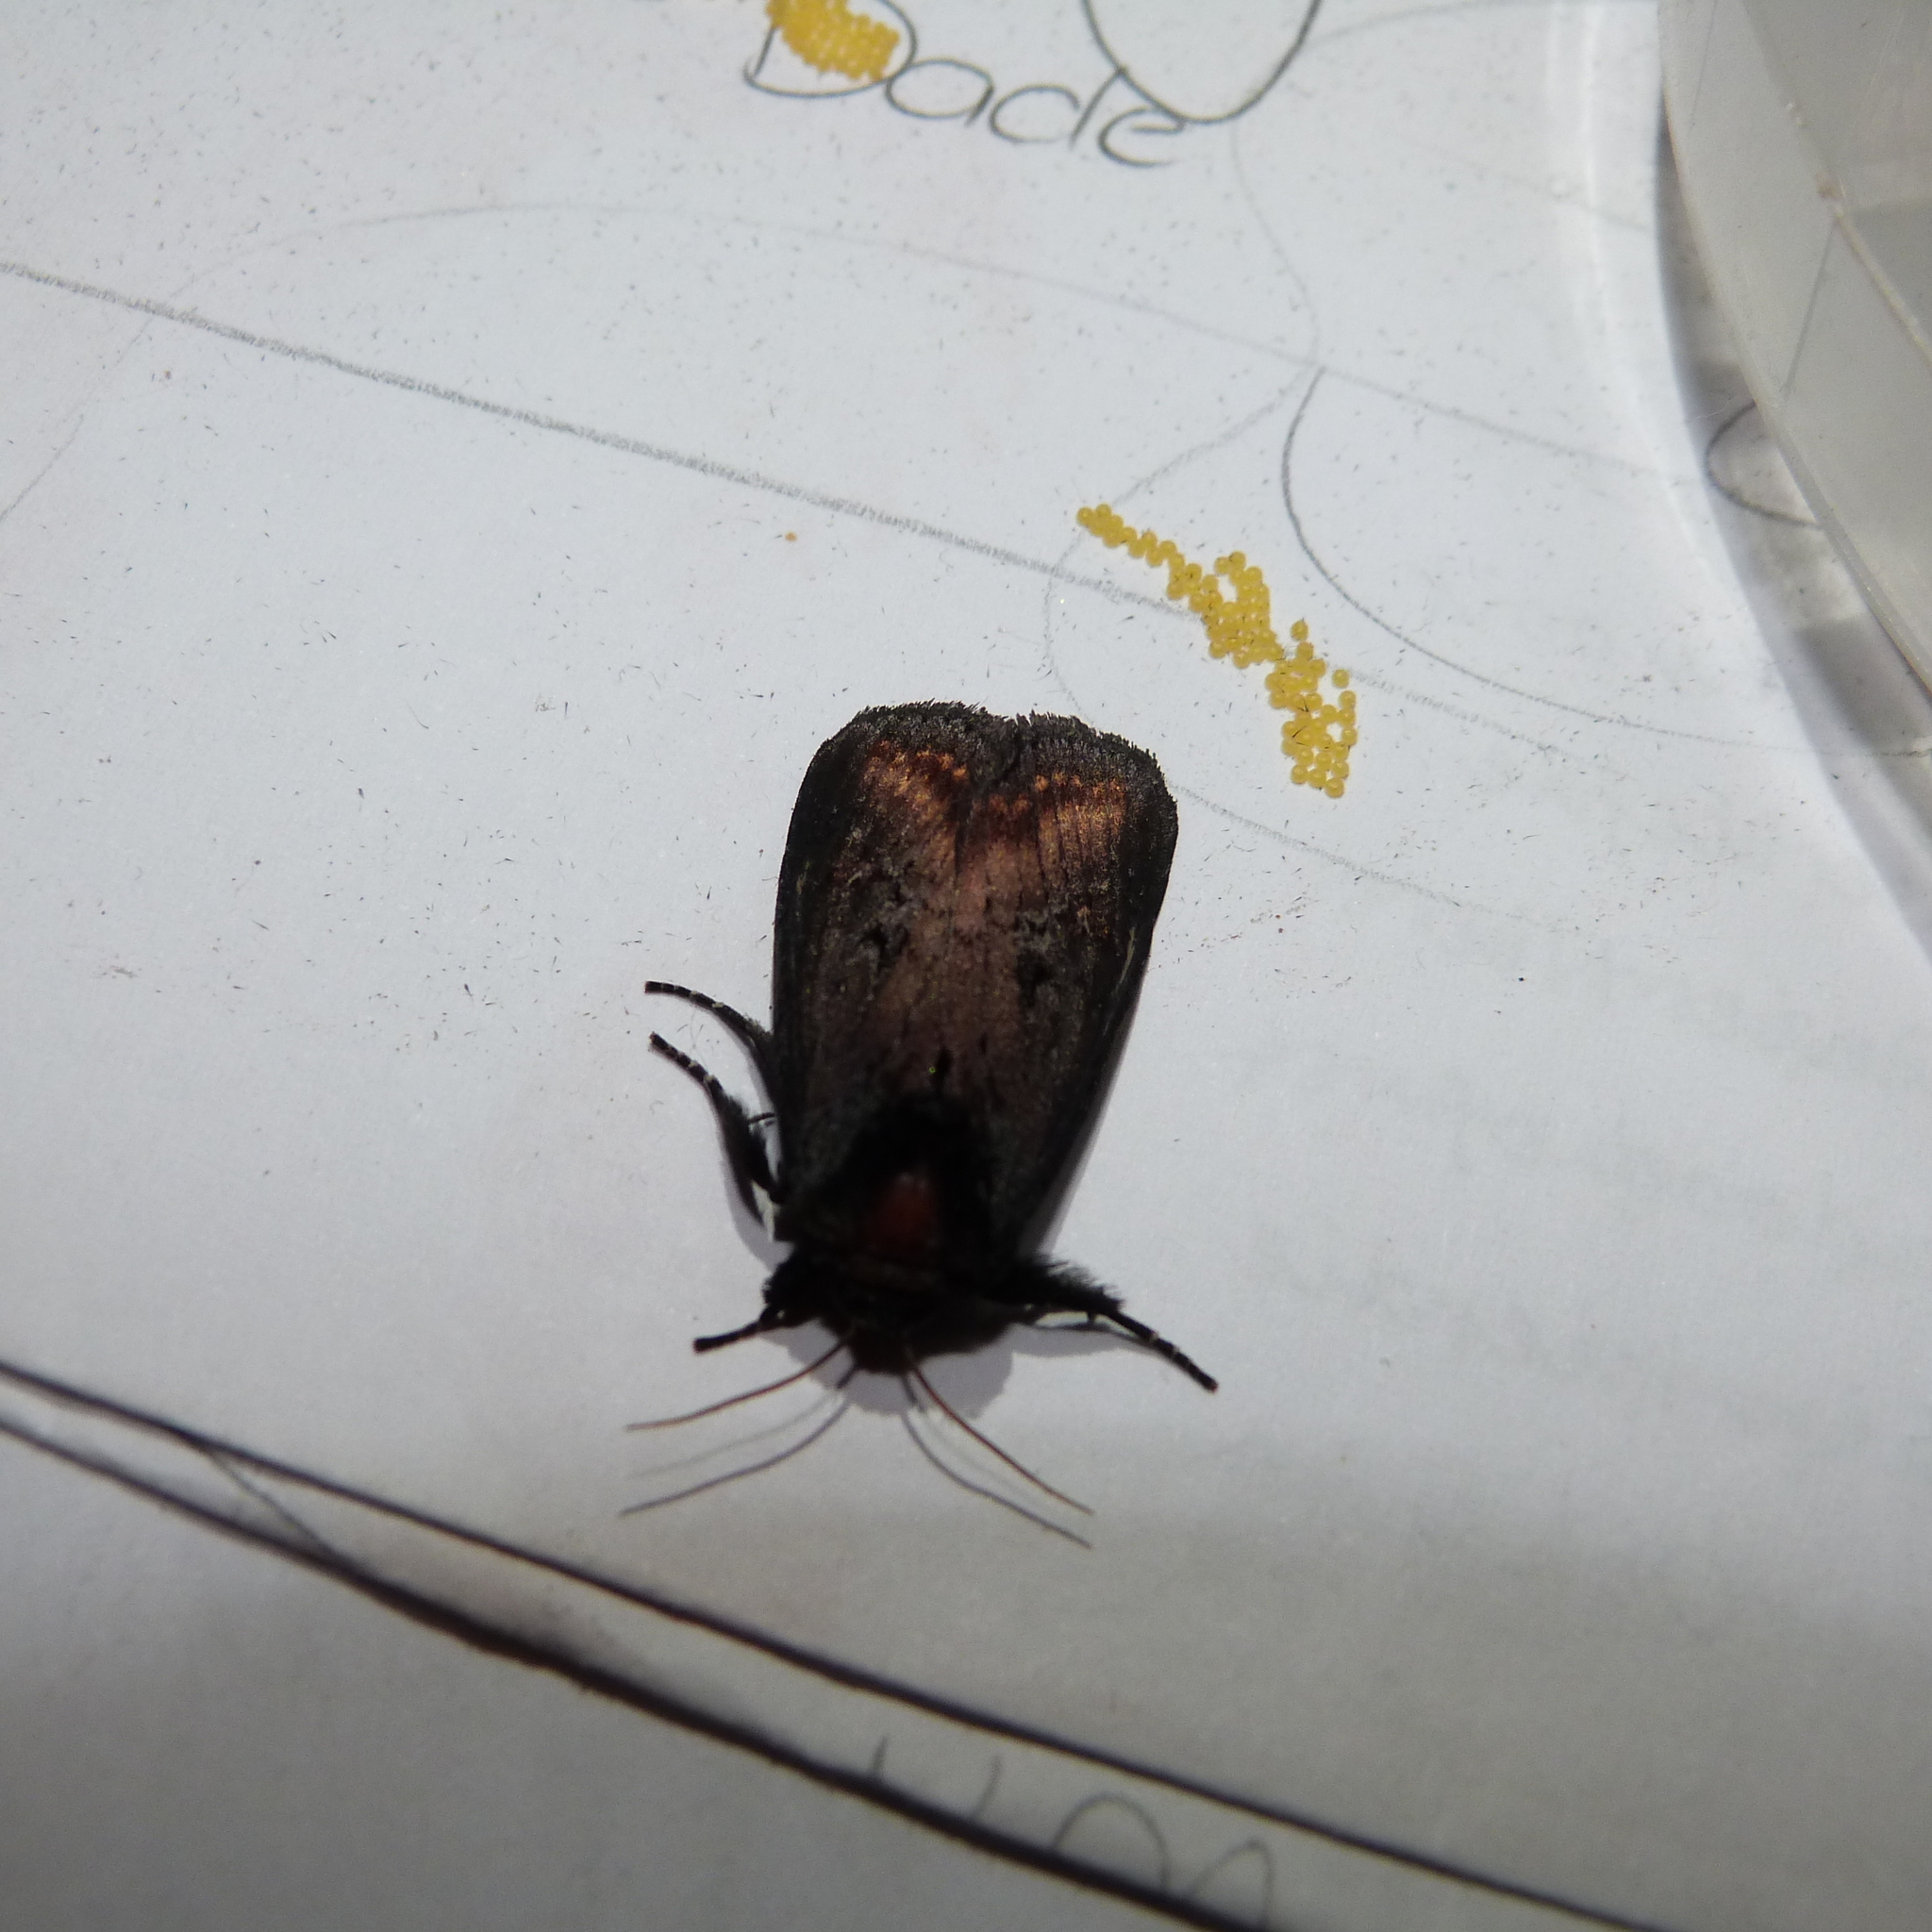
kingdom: Animalia
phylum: Arthropoda
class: Insecta
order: Lepidoptera
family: Noctuidae
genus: Brithys
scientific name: Brithys crini
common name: Kew arches
